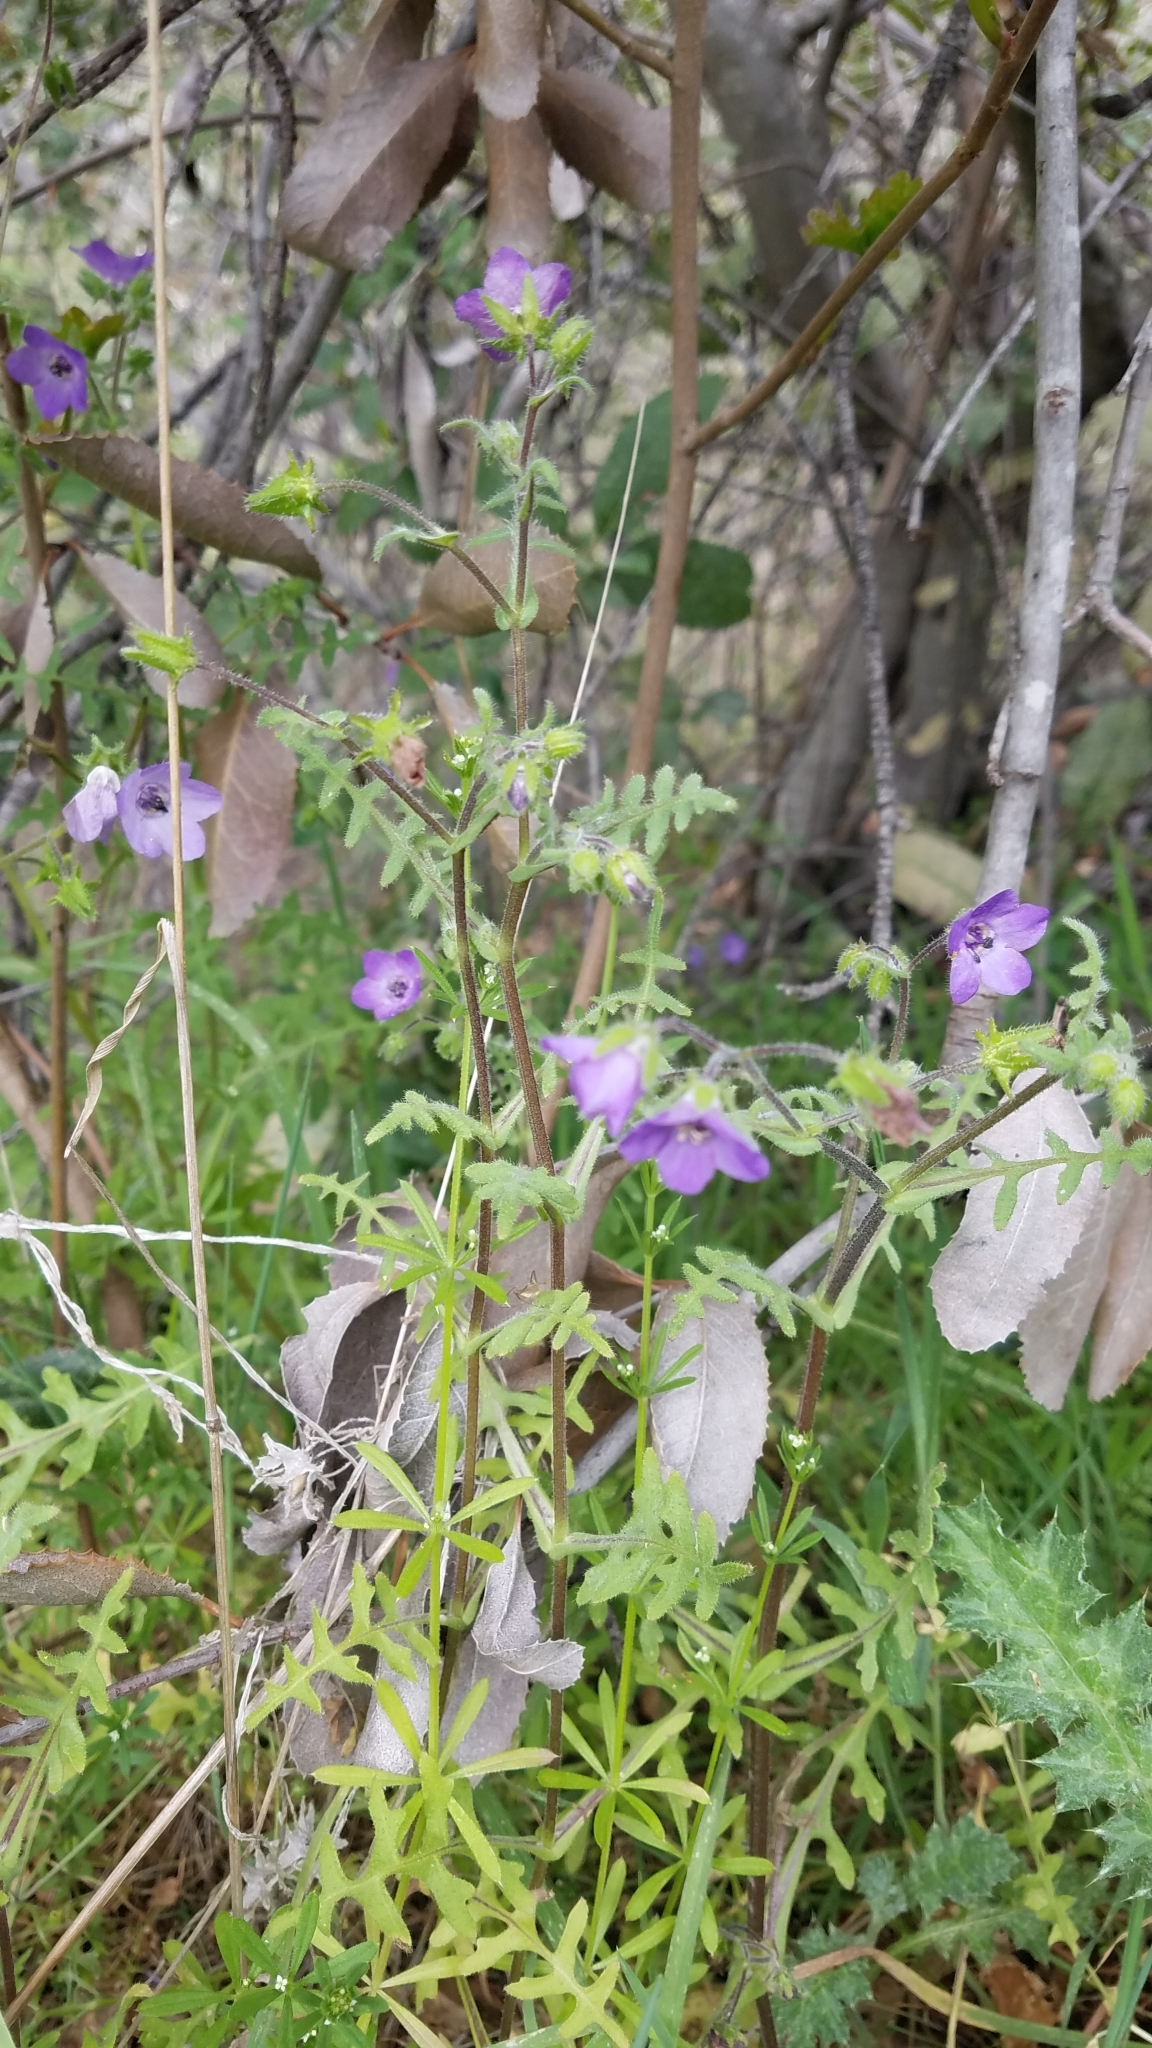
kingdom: Plantae
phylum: Tracheophyta
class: Magnoliopsida
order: Boraginales
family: Hydrophyllaceae
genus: Pholistoma
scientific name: Pholistoma auritum
